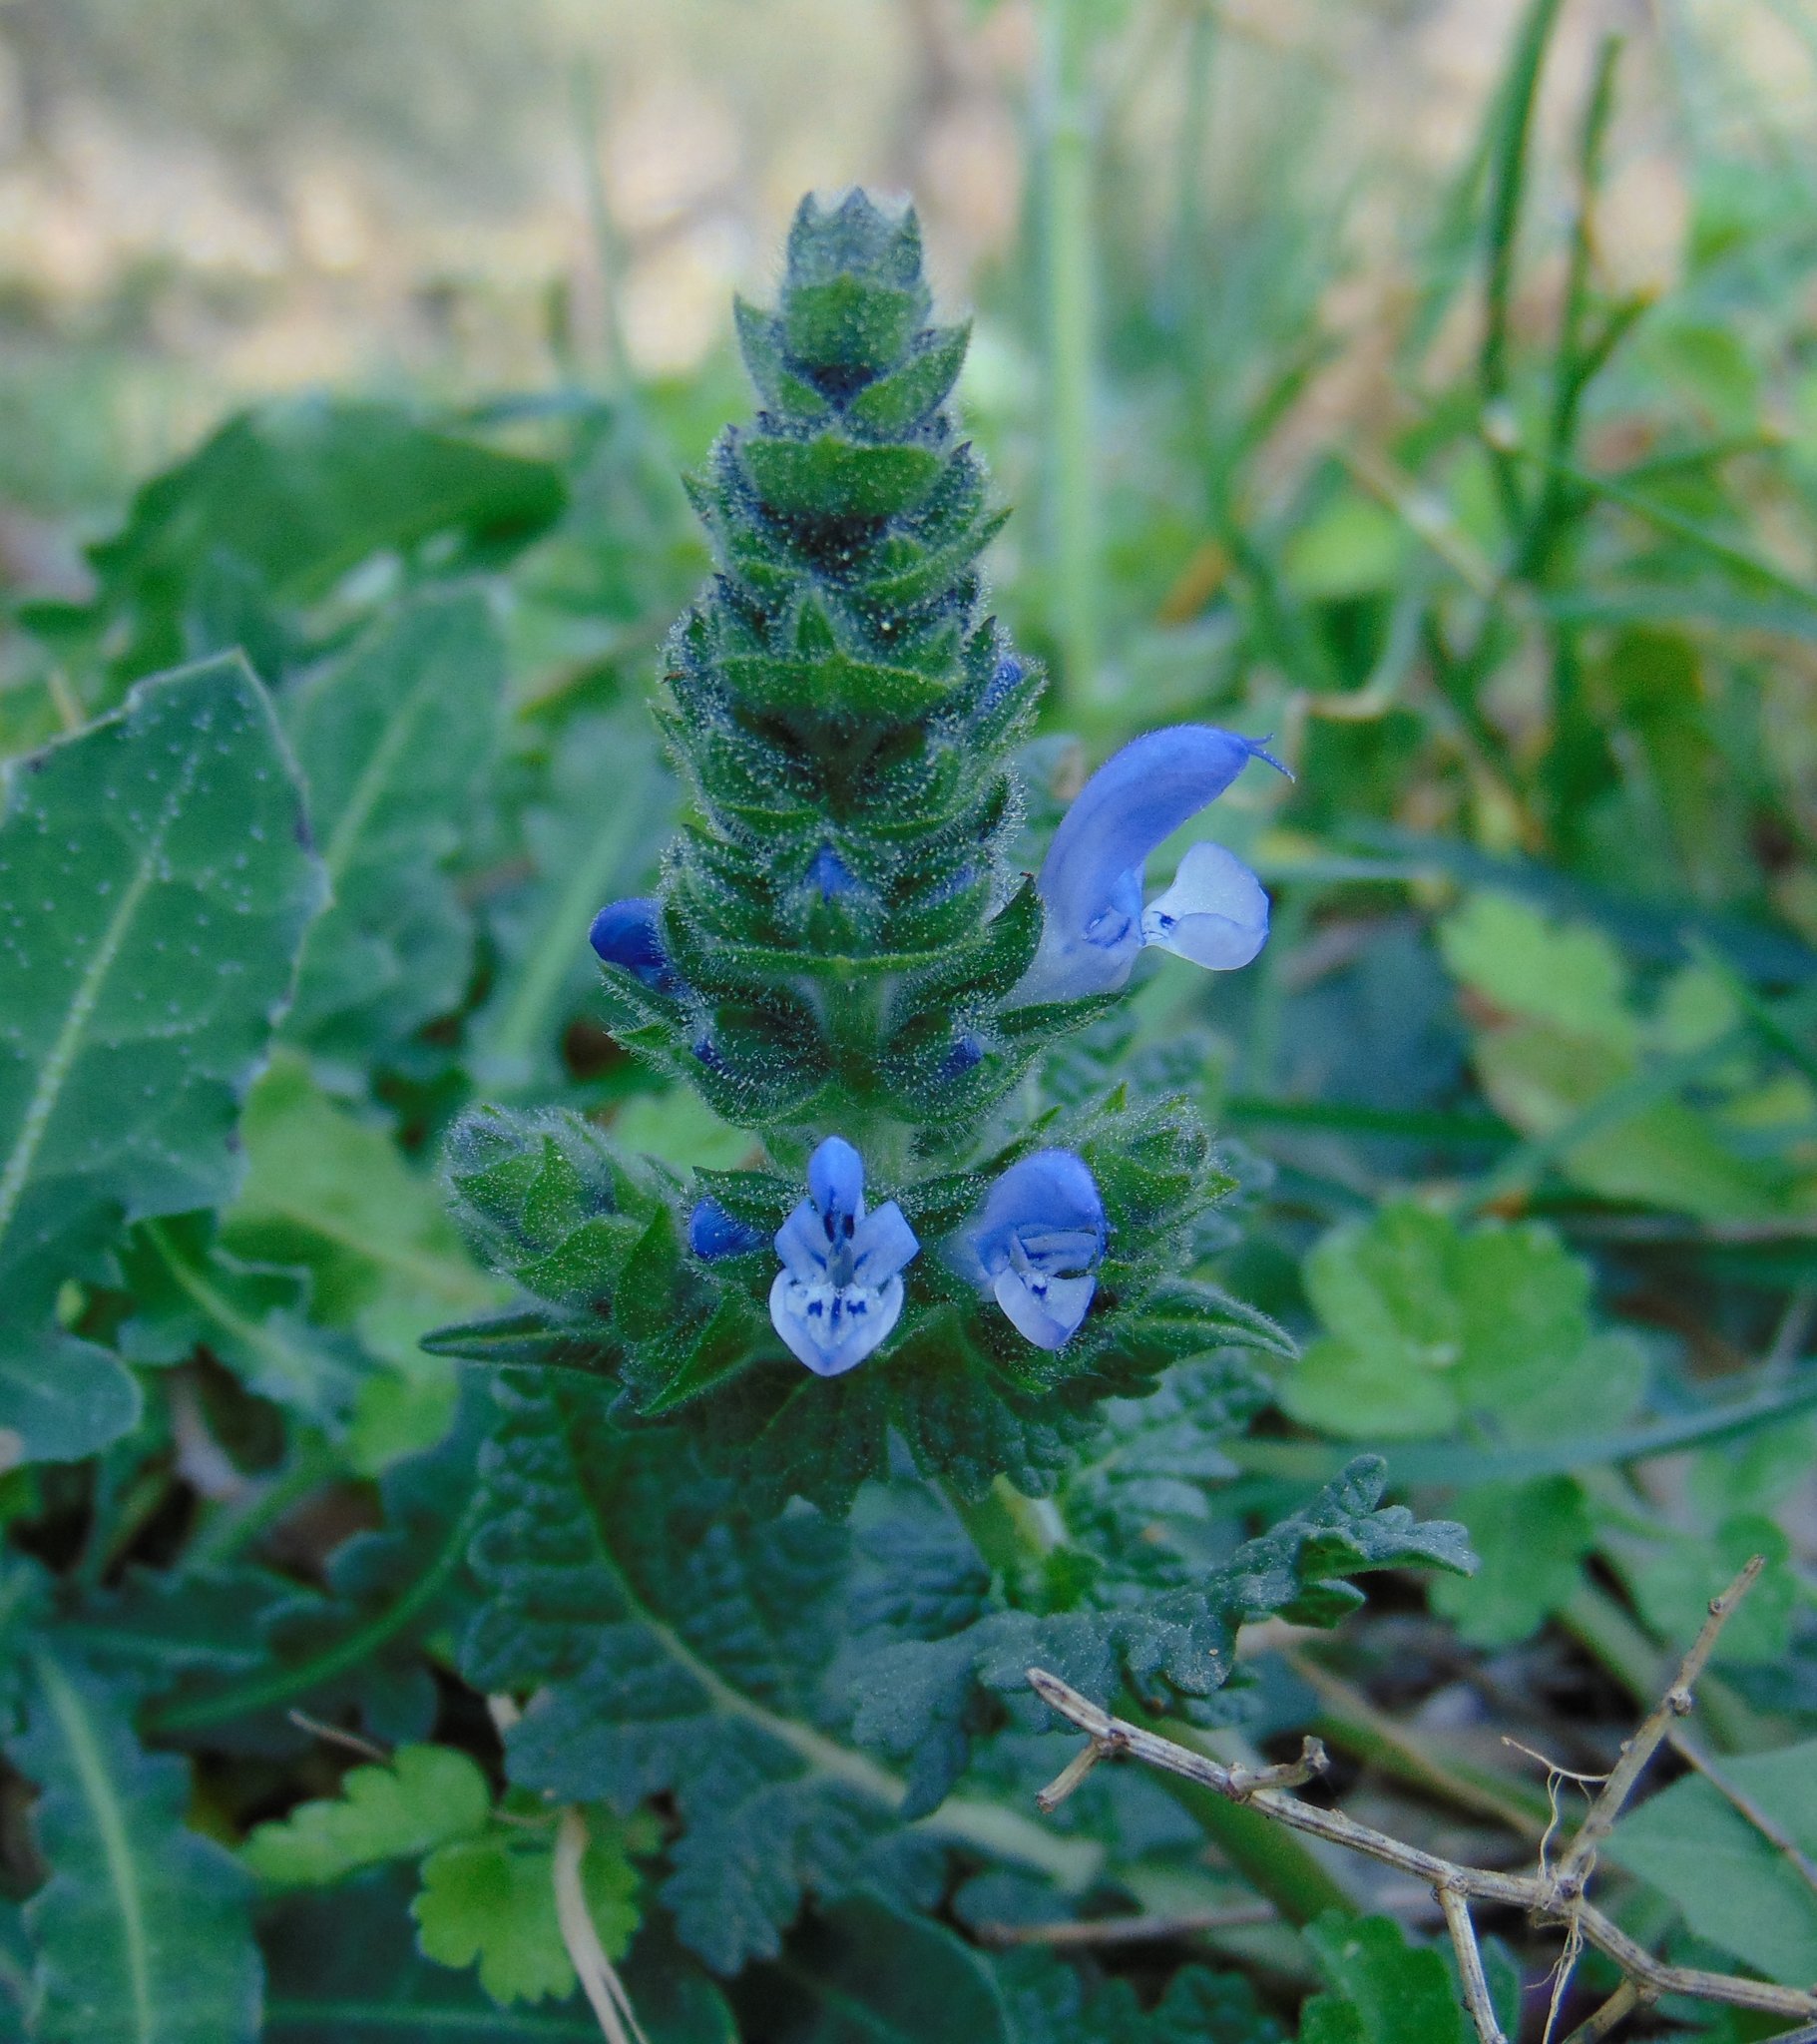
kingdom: Plantae
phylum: Tracheophyta
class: Magnoliopsida
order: Lamiales
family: Lamiaceae
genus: Salvia
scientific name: Salvia verbenaca
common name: Wild clary
